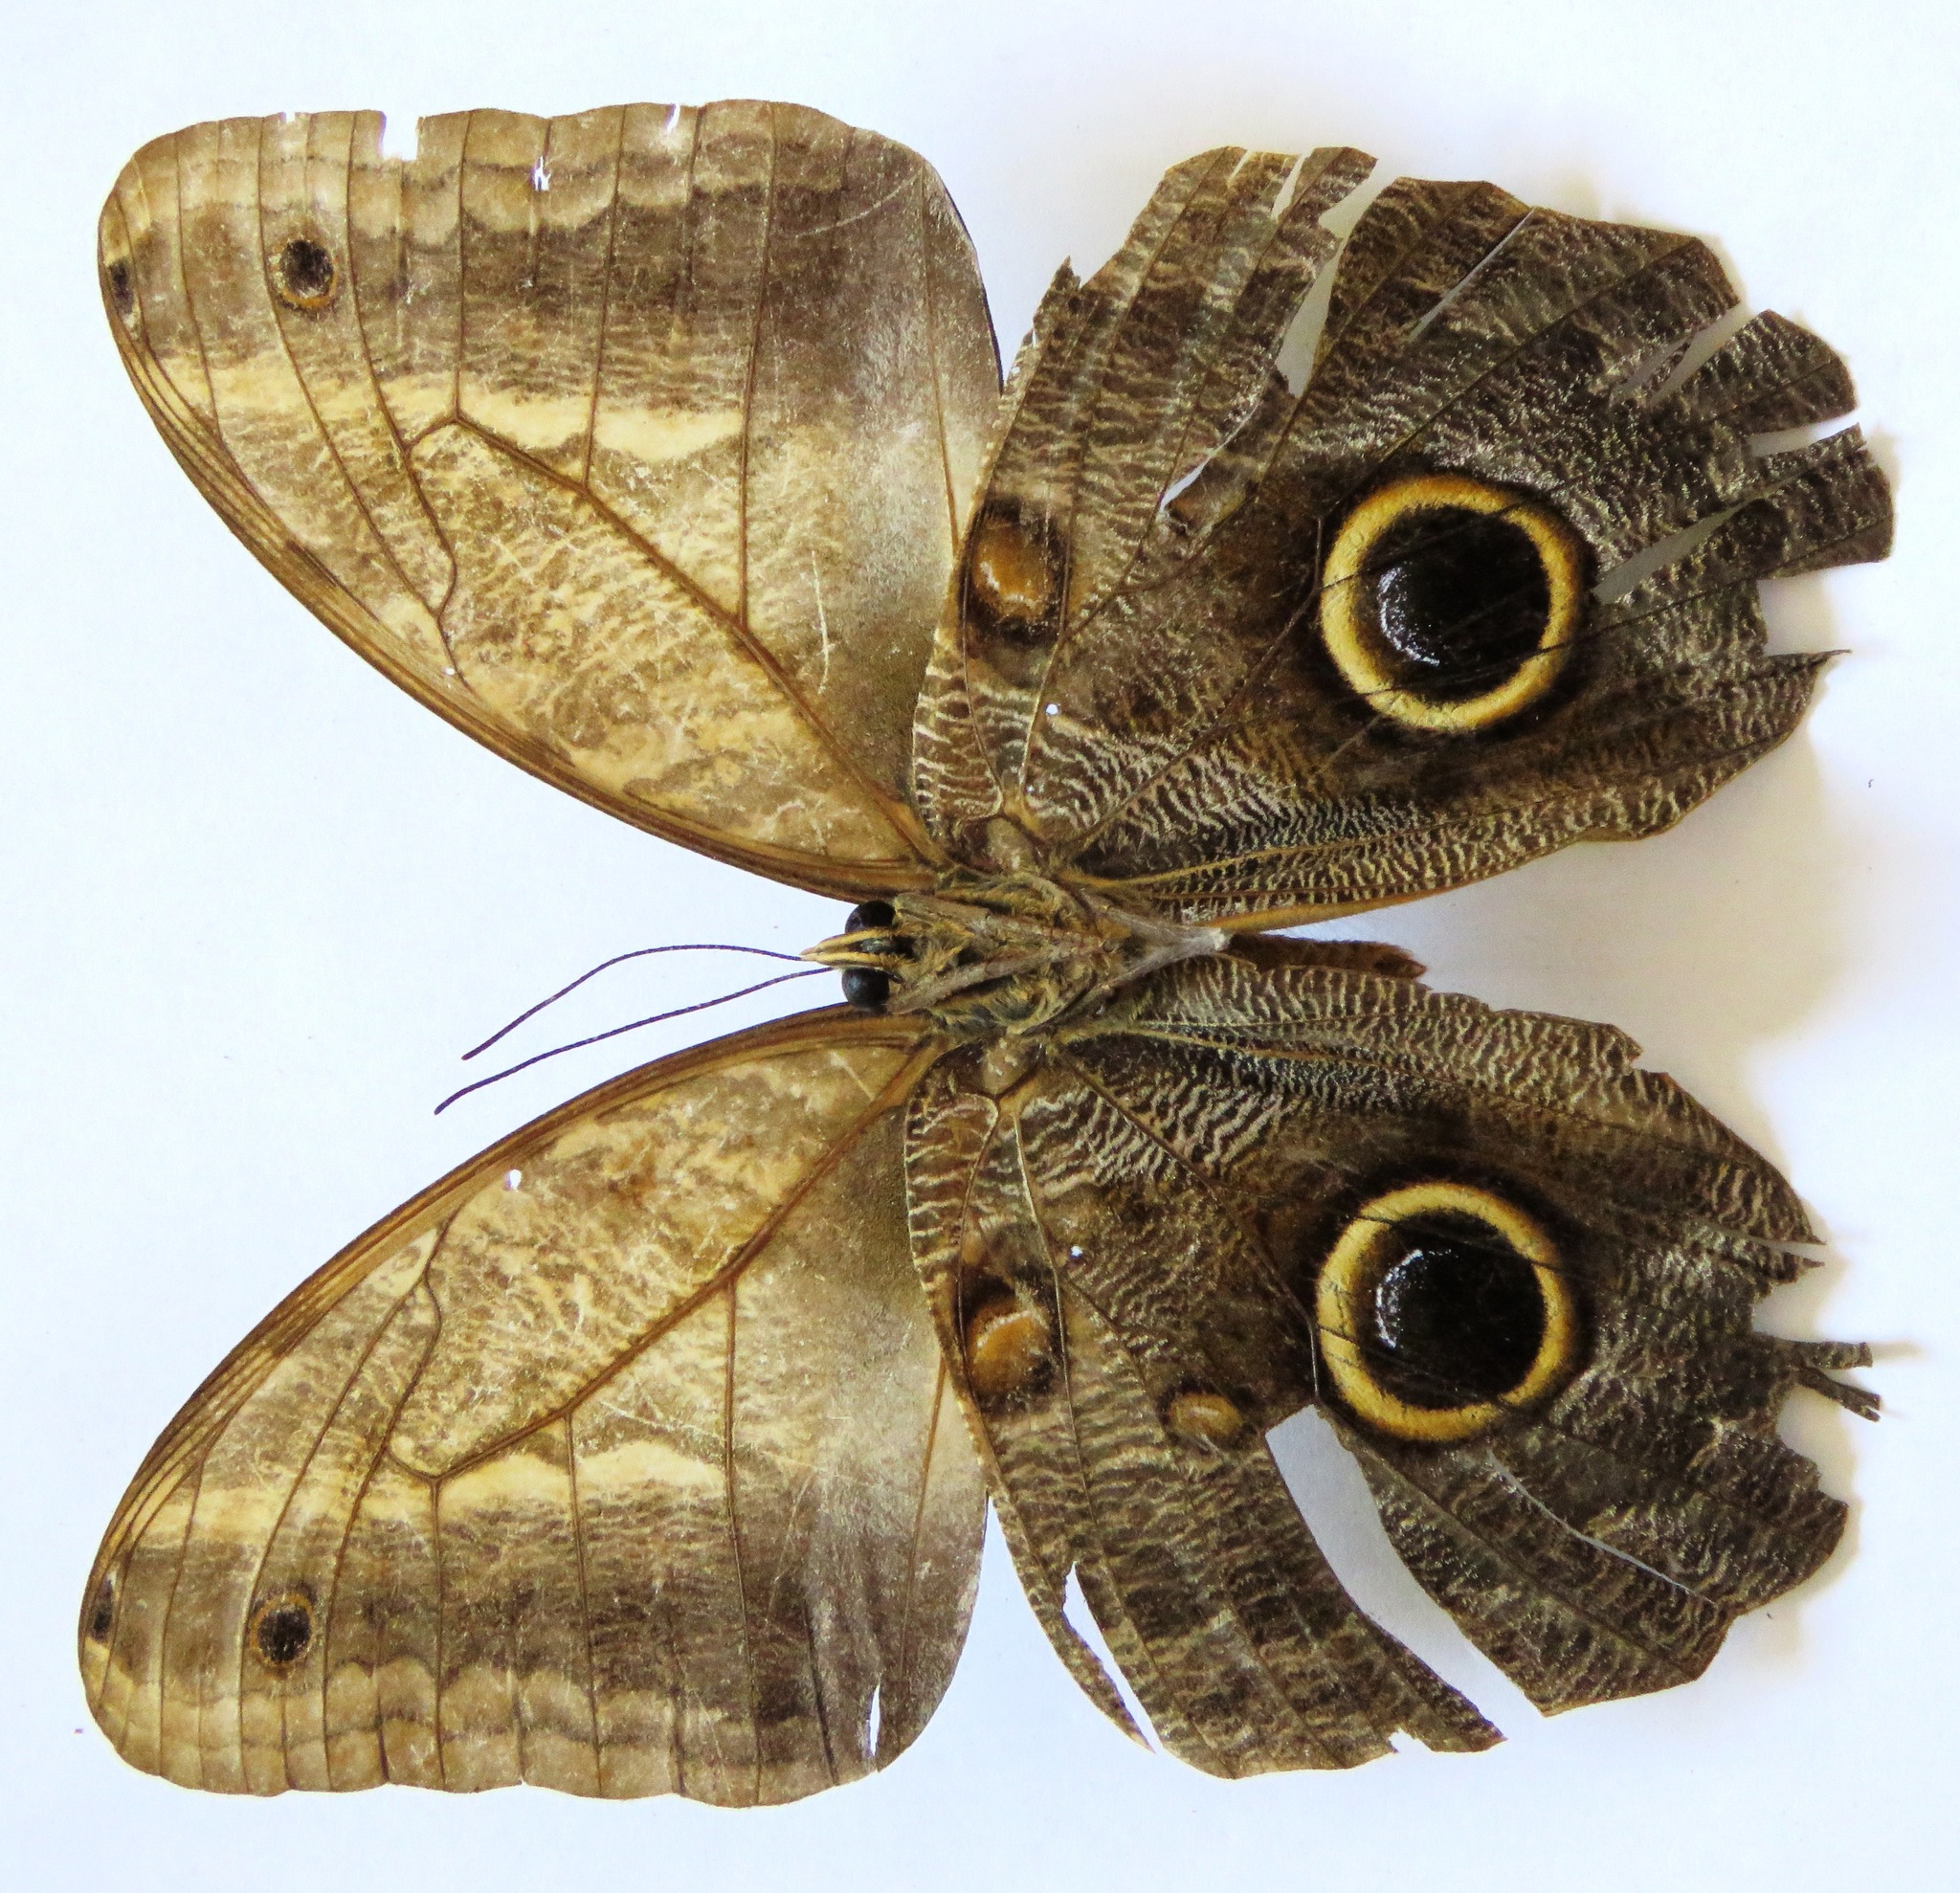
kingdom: Animalia
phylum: Arthropoda
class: Insecta
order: Lepidoptera
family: Nymphalidae
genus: Caligo
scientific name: Caligo telamonius
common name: Pale owl-butterfly
